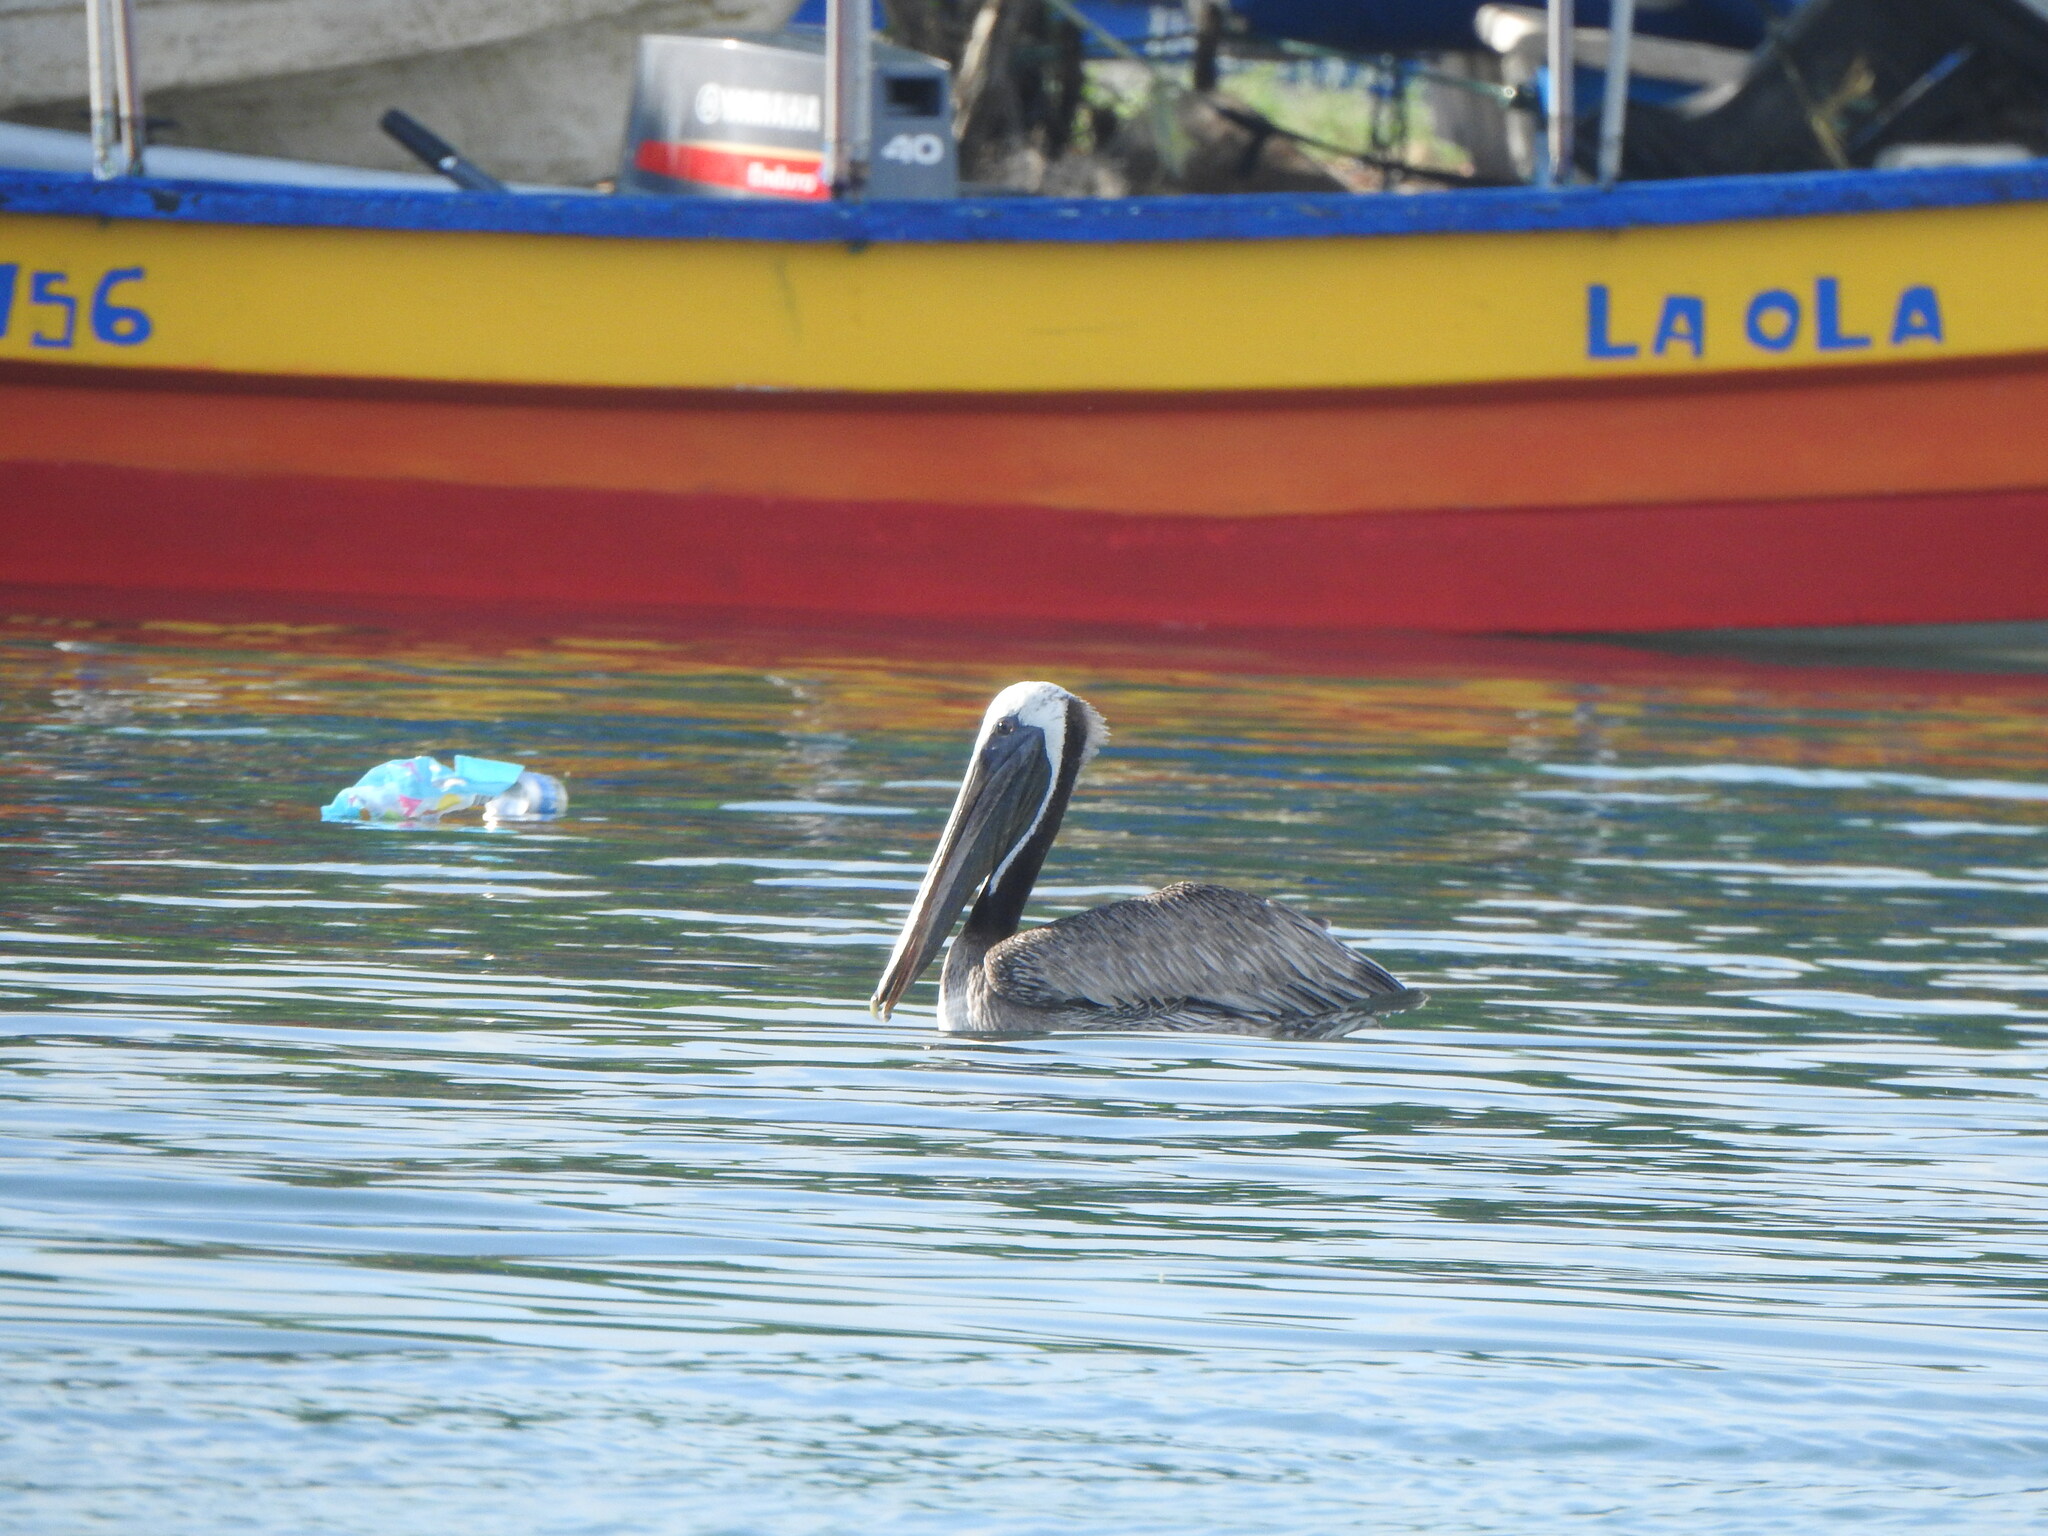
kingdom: Animalia
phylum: Chordata
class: Aves
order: Pelecaniformes
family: Pelecanidae
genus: Pelecanus
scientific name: Pelecanus occidentalis
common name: Brown pelican
